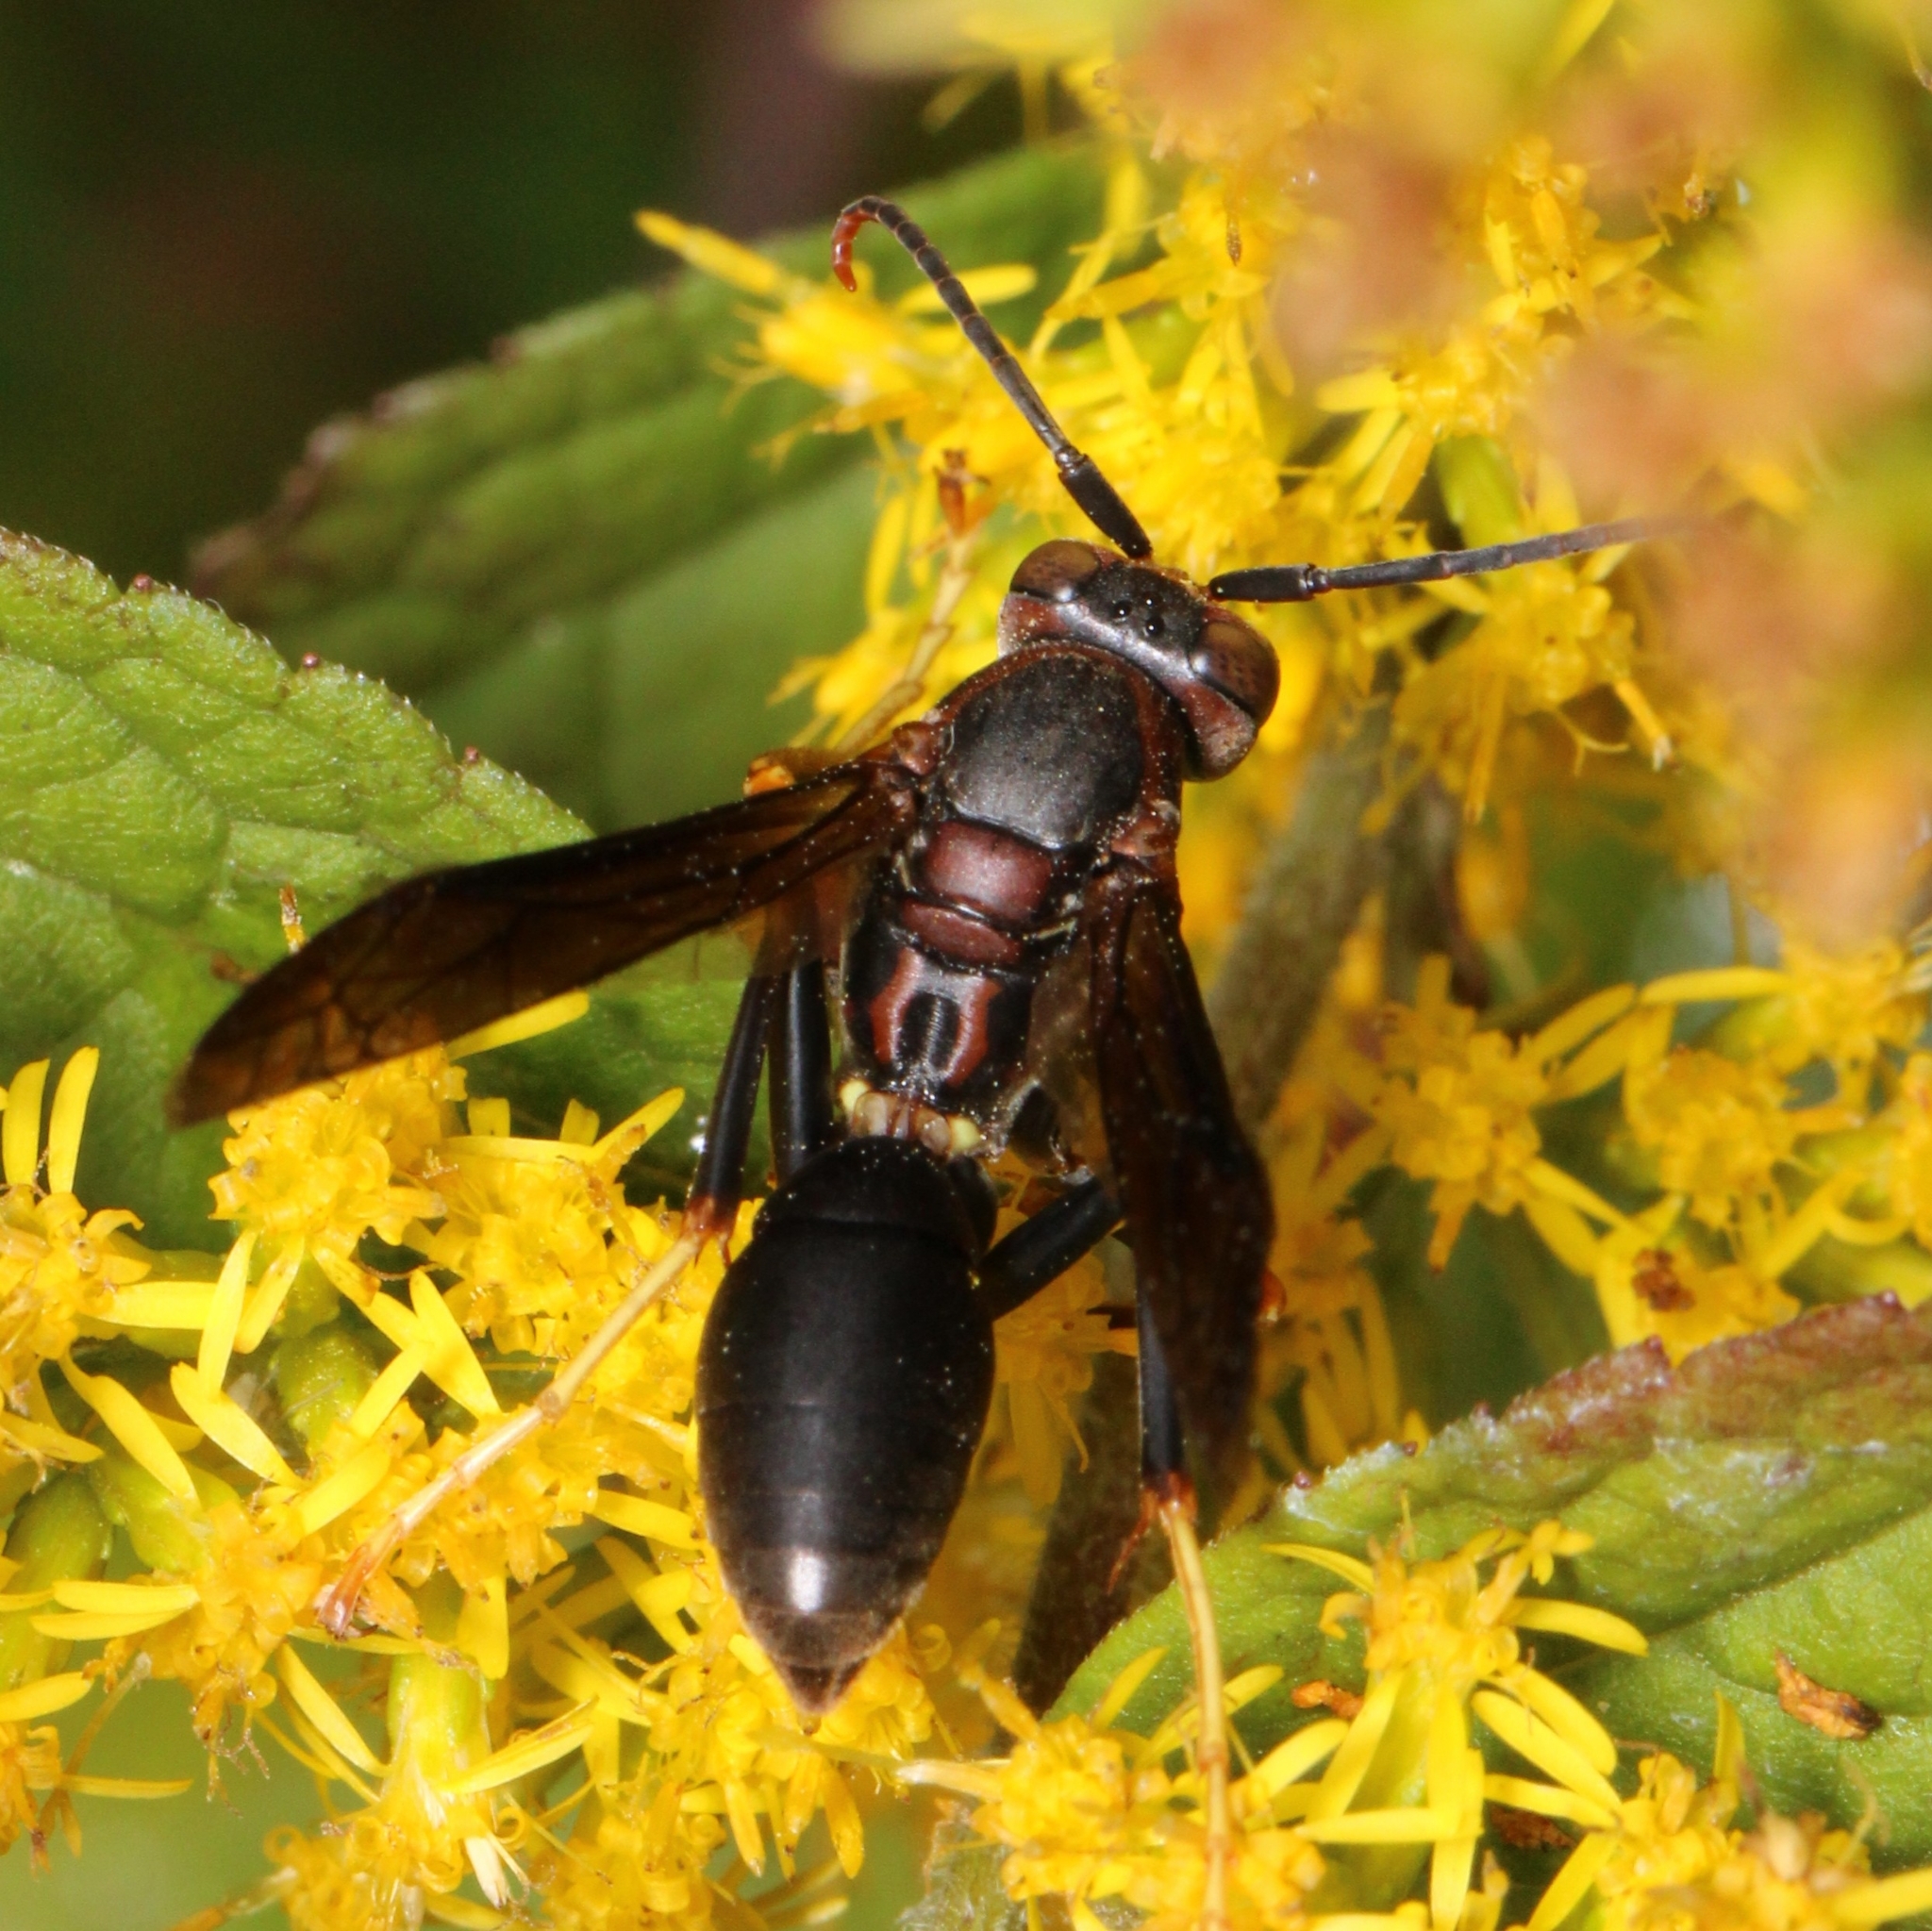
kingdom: Animalia
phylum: Arthropoda
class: Insecta
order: Hymenoptera
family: Eumenidae
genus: Polistes
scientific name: Polistes metricus
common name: Metric paper wasp
